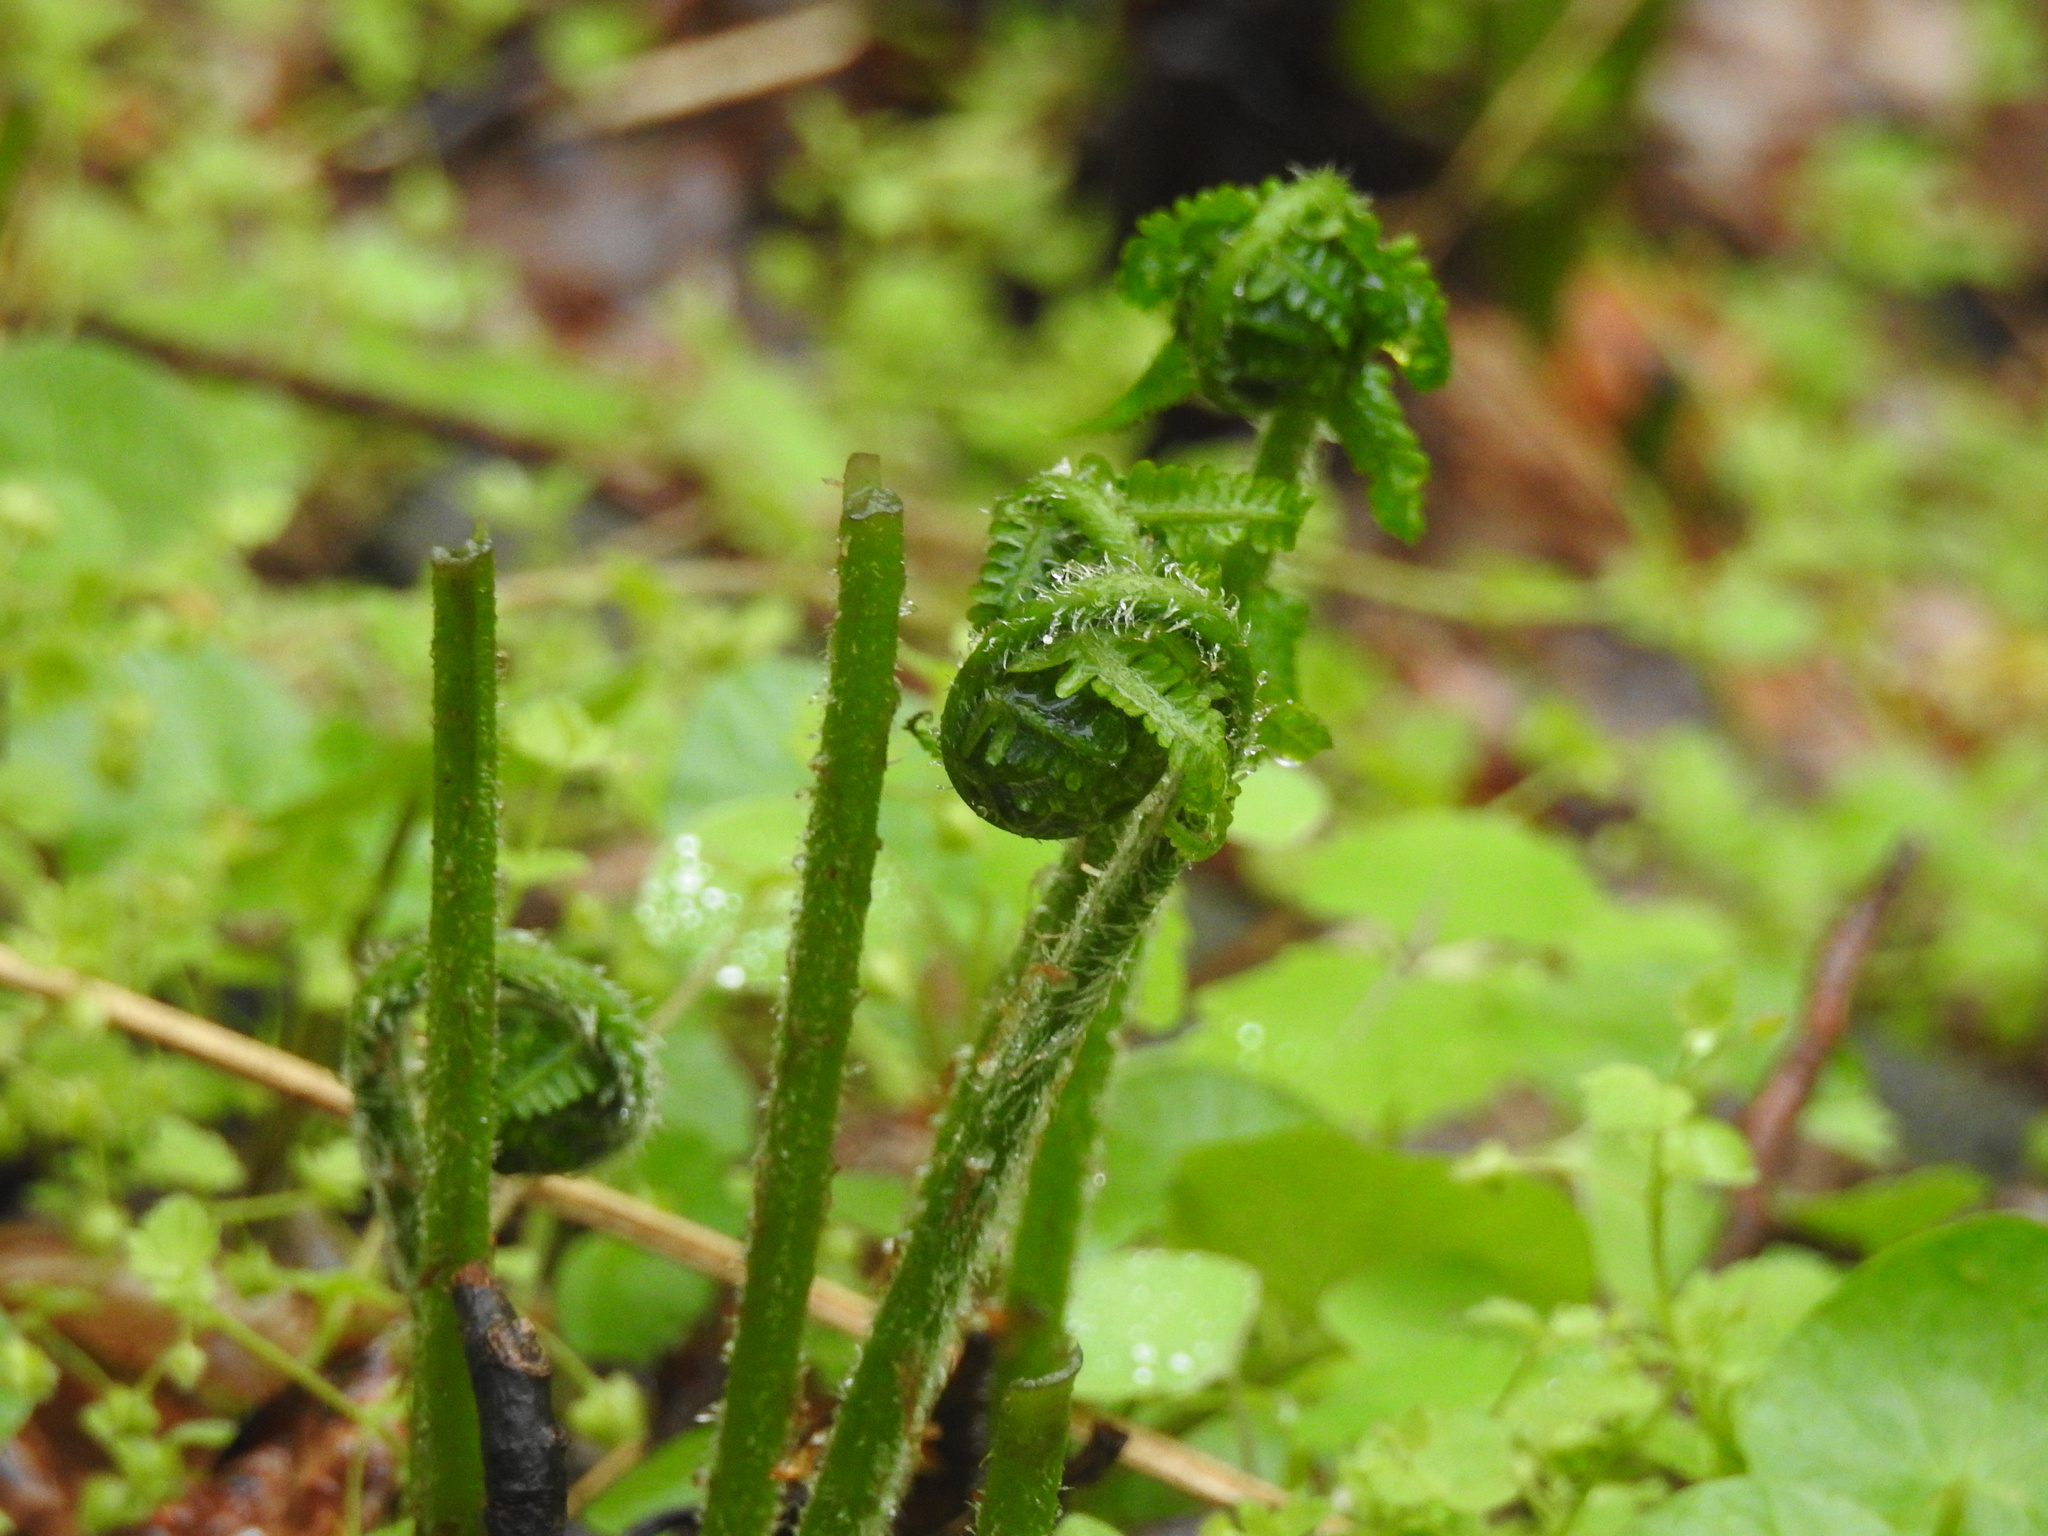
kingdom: Plantae
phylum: Tracheophyta
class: Polypodiopsida
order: Polypodiales
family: Athyriaceae
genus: Deparia
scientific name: Deparia acrostichoides
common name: Silver false spleenwort
